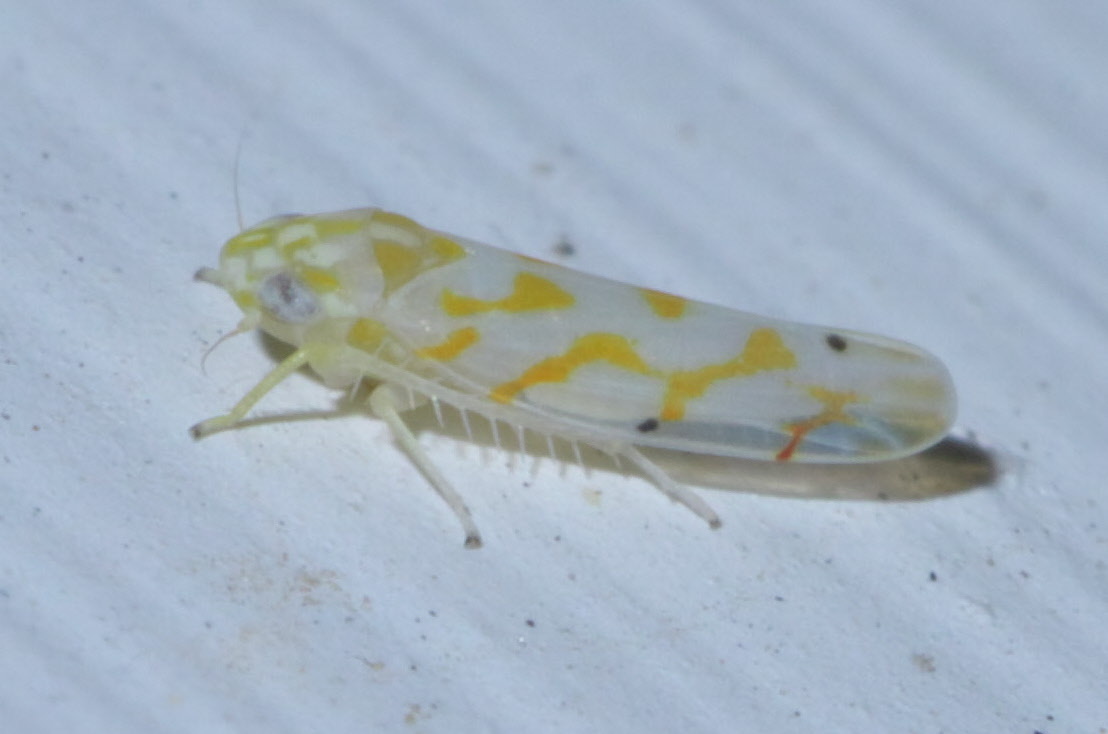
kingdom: Animalia
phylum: Arthropoda
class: Insecta
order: Hemiptera
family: Cicadellidae
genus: Eratoneura
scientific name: Eratoneura
